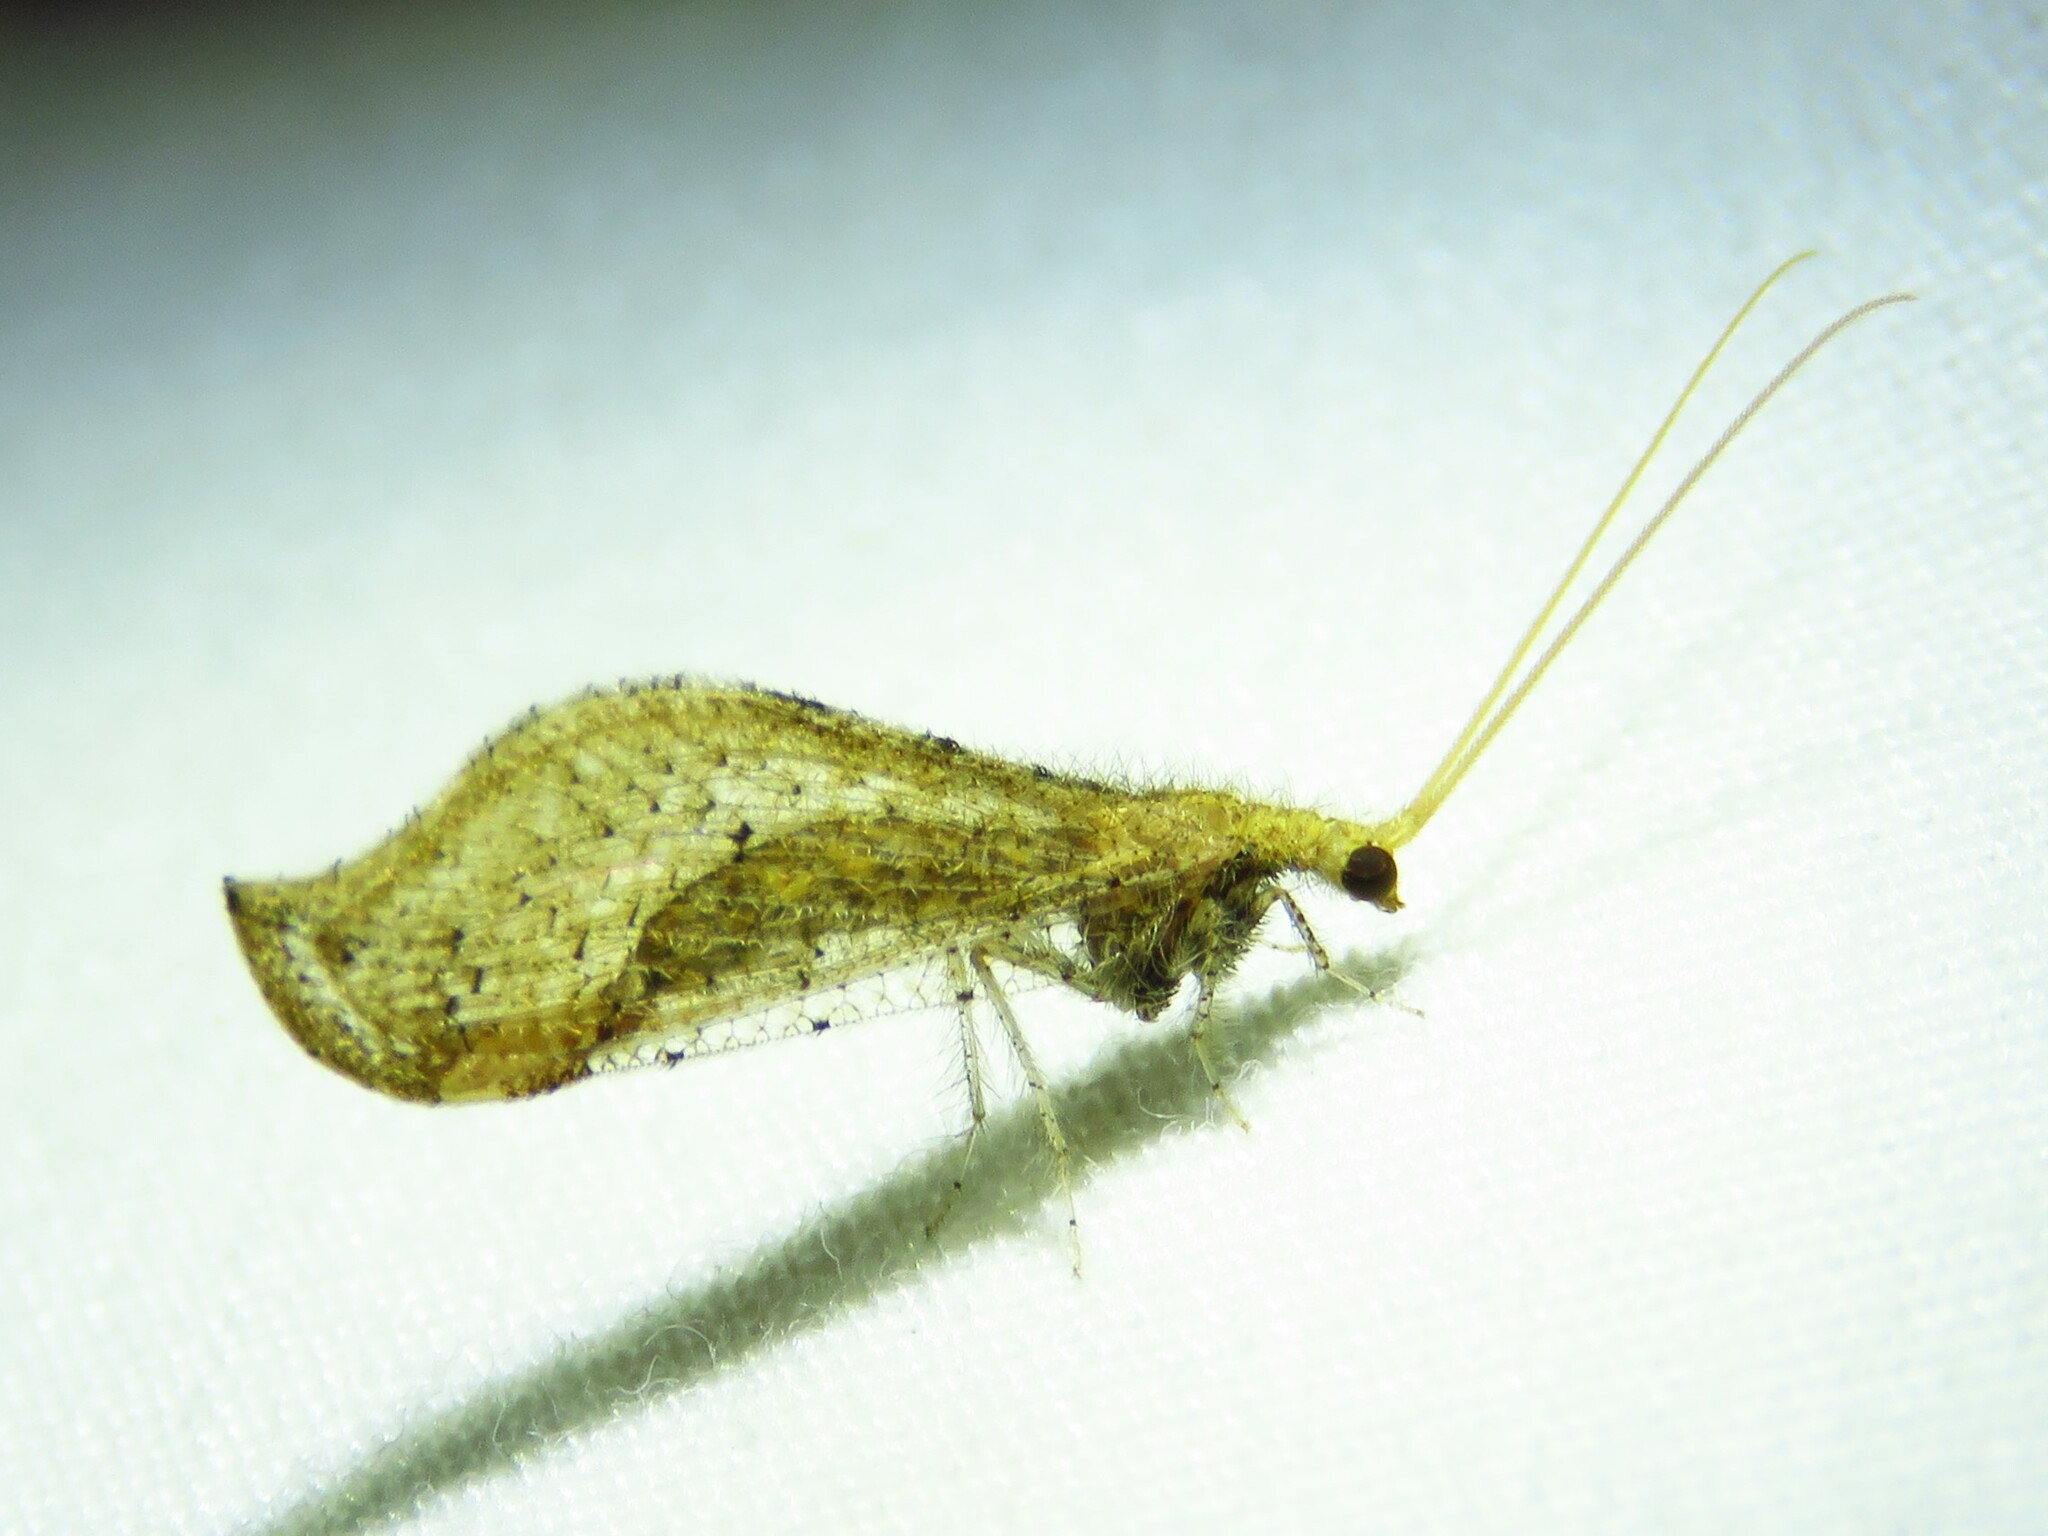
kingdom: Animalia
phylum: Arthropoda
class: Insecta
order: Neuroptera
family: Berothidae
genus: Lomamyia
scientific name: Lomamyia squamosa
